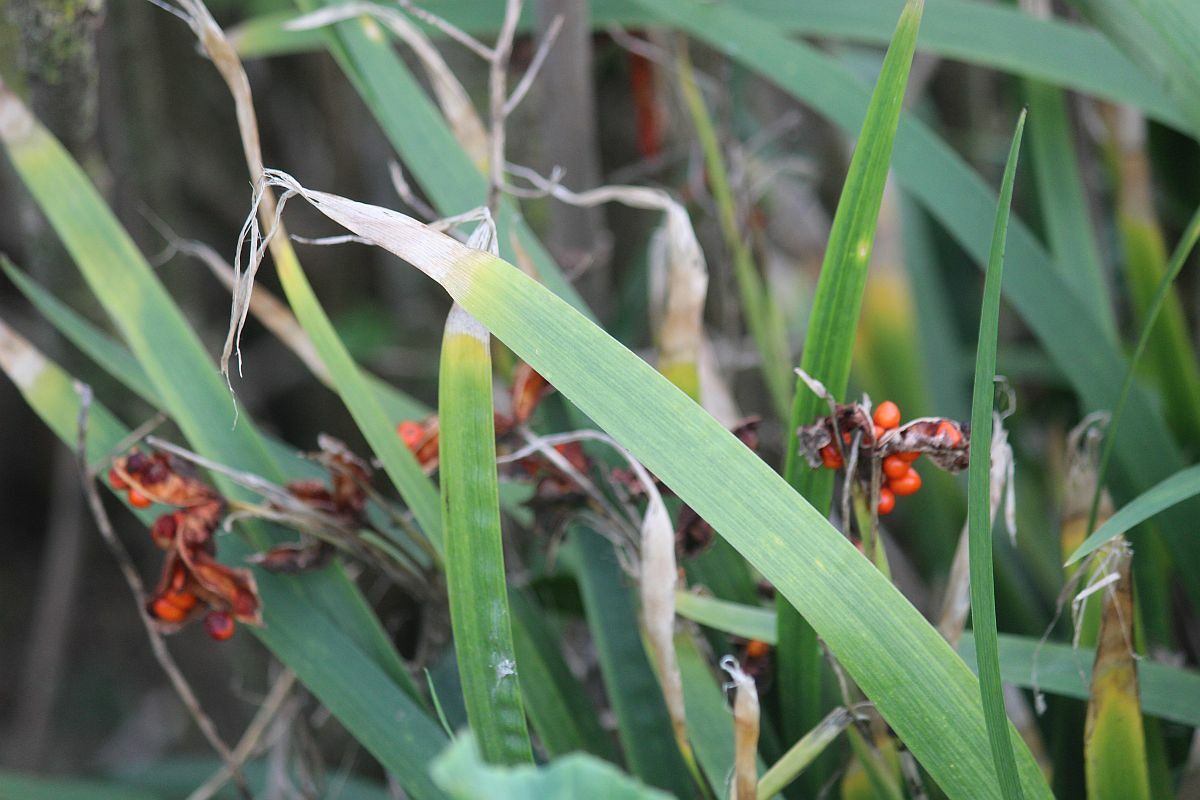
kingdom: Plantae
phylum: Tracheophyta
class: Liliopsida
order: Asparagales
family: Iridaceae
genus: Iris
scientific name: Iris foetidissima
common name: Stinking iris
